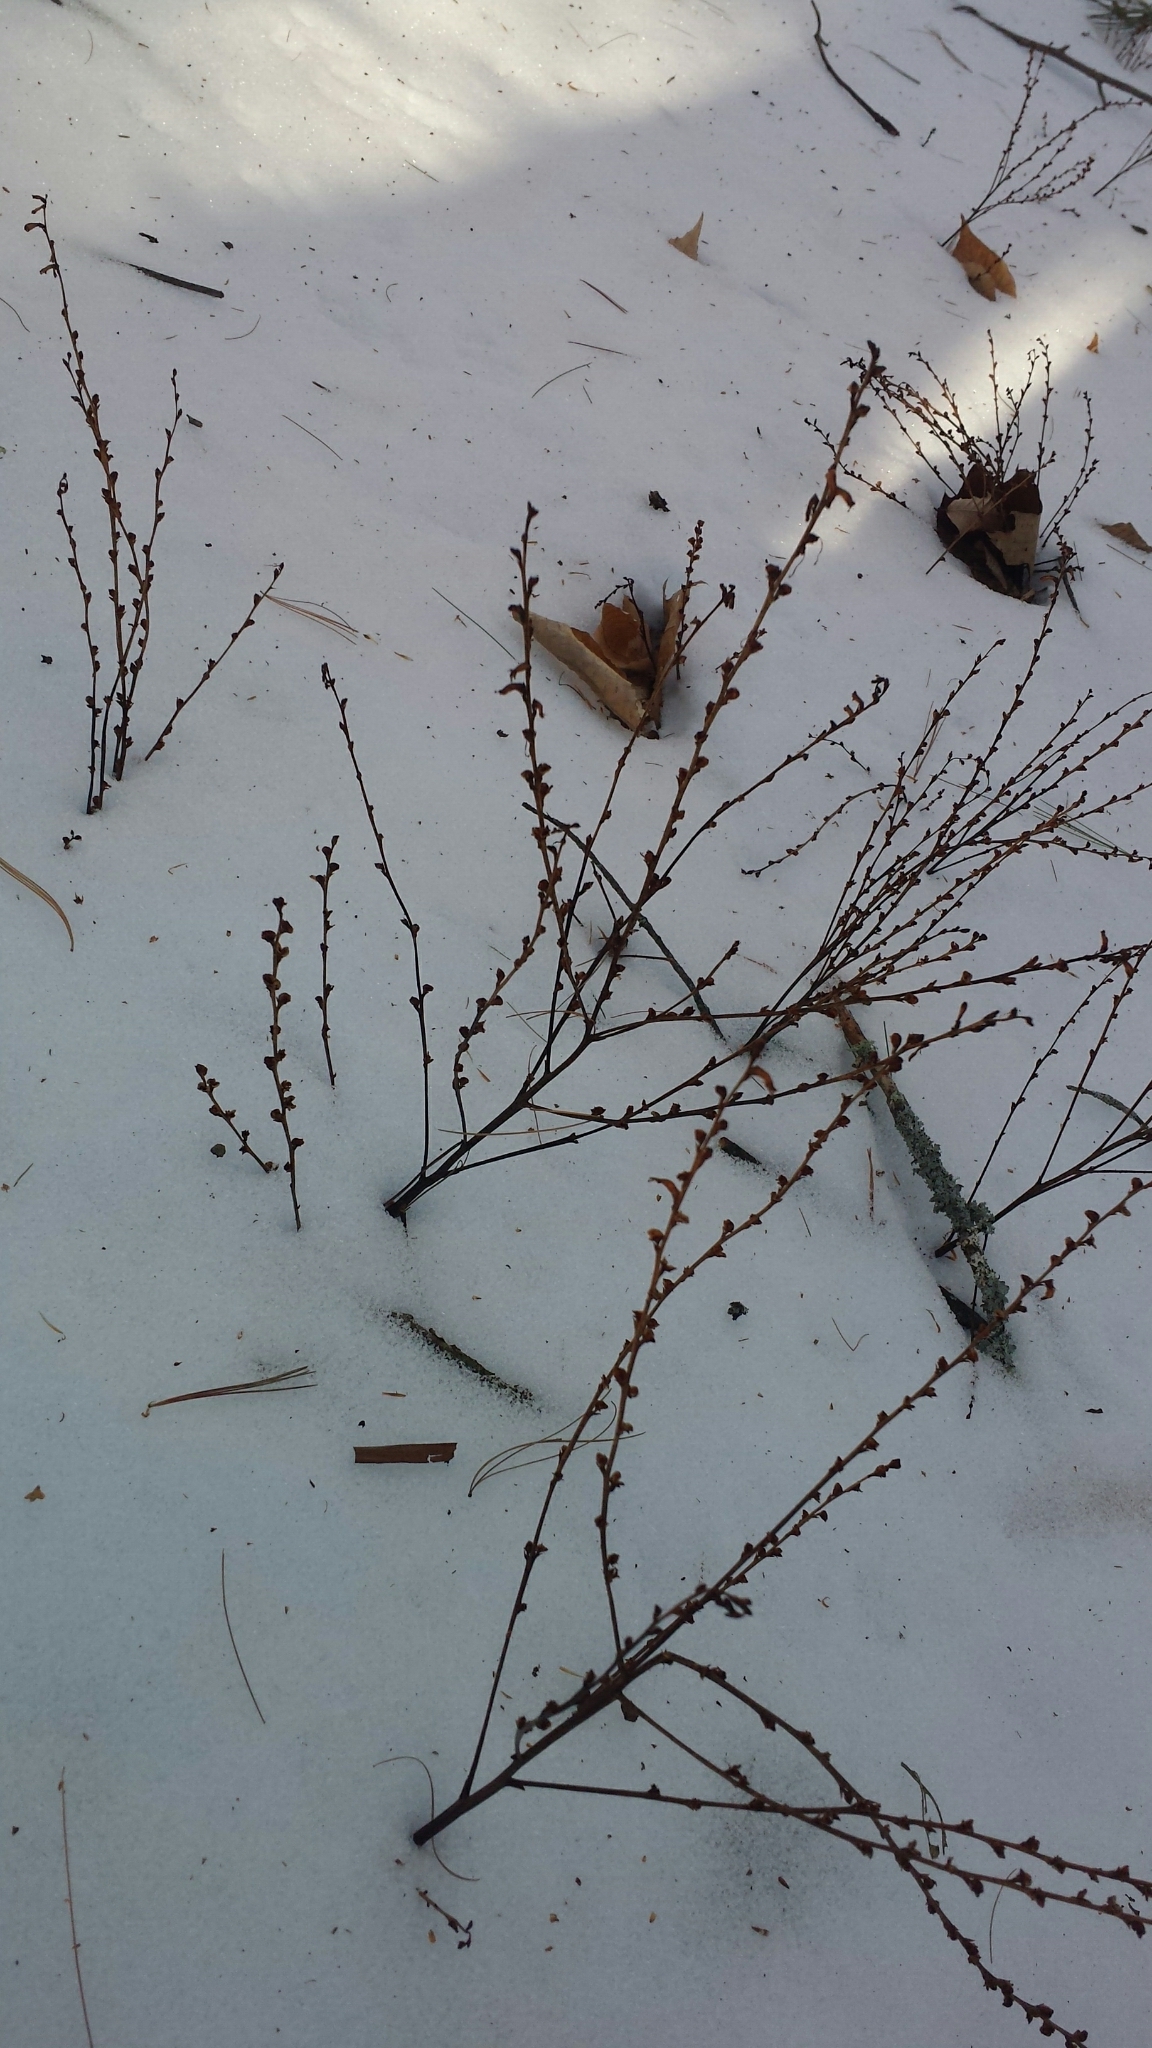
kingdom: Plantae
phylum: Tracheophyta
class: Magnoliopsida
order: Lamiales
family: Orobanchaceae
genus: Epifagus
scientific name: Epifagus virginiana
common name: Beechdrops
